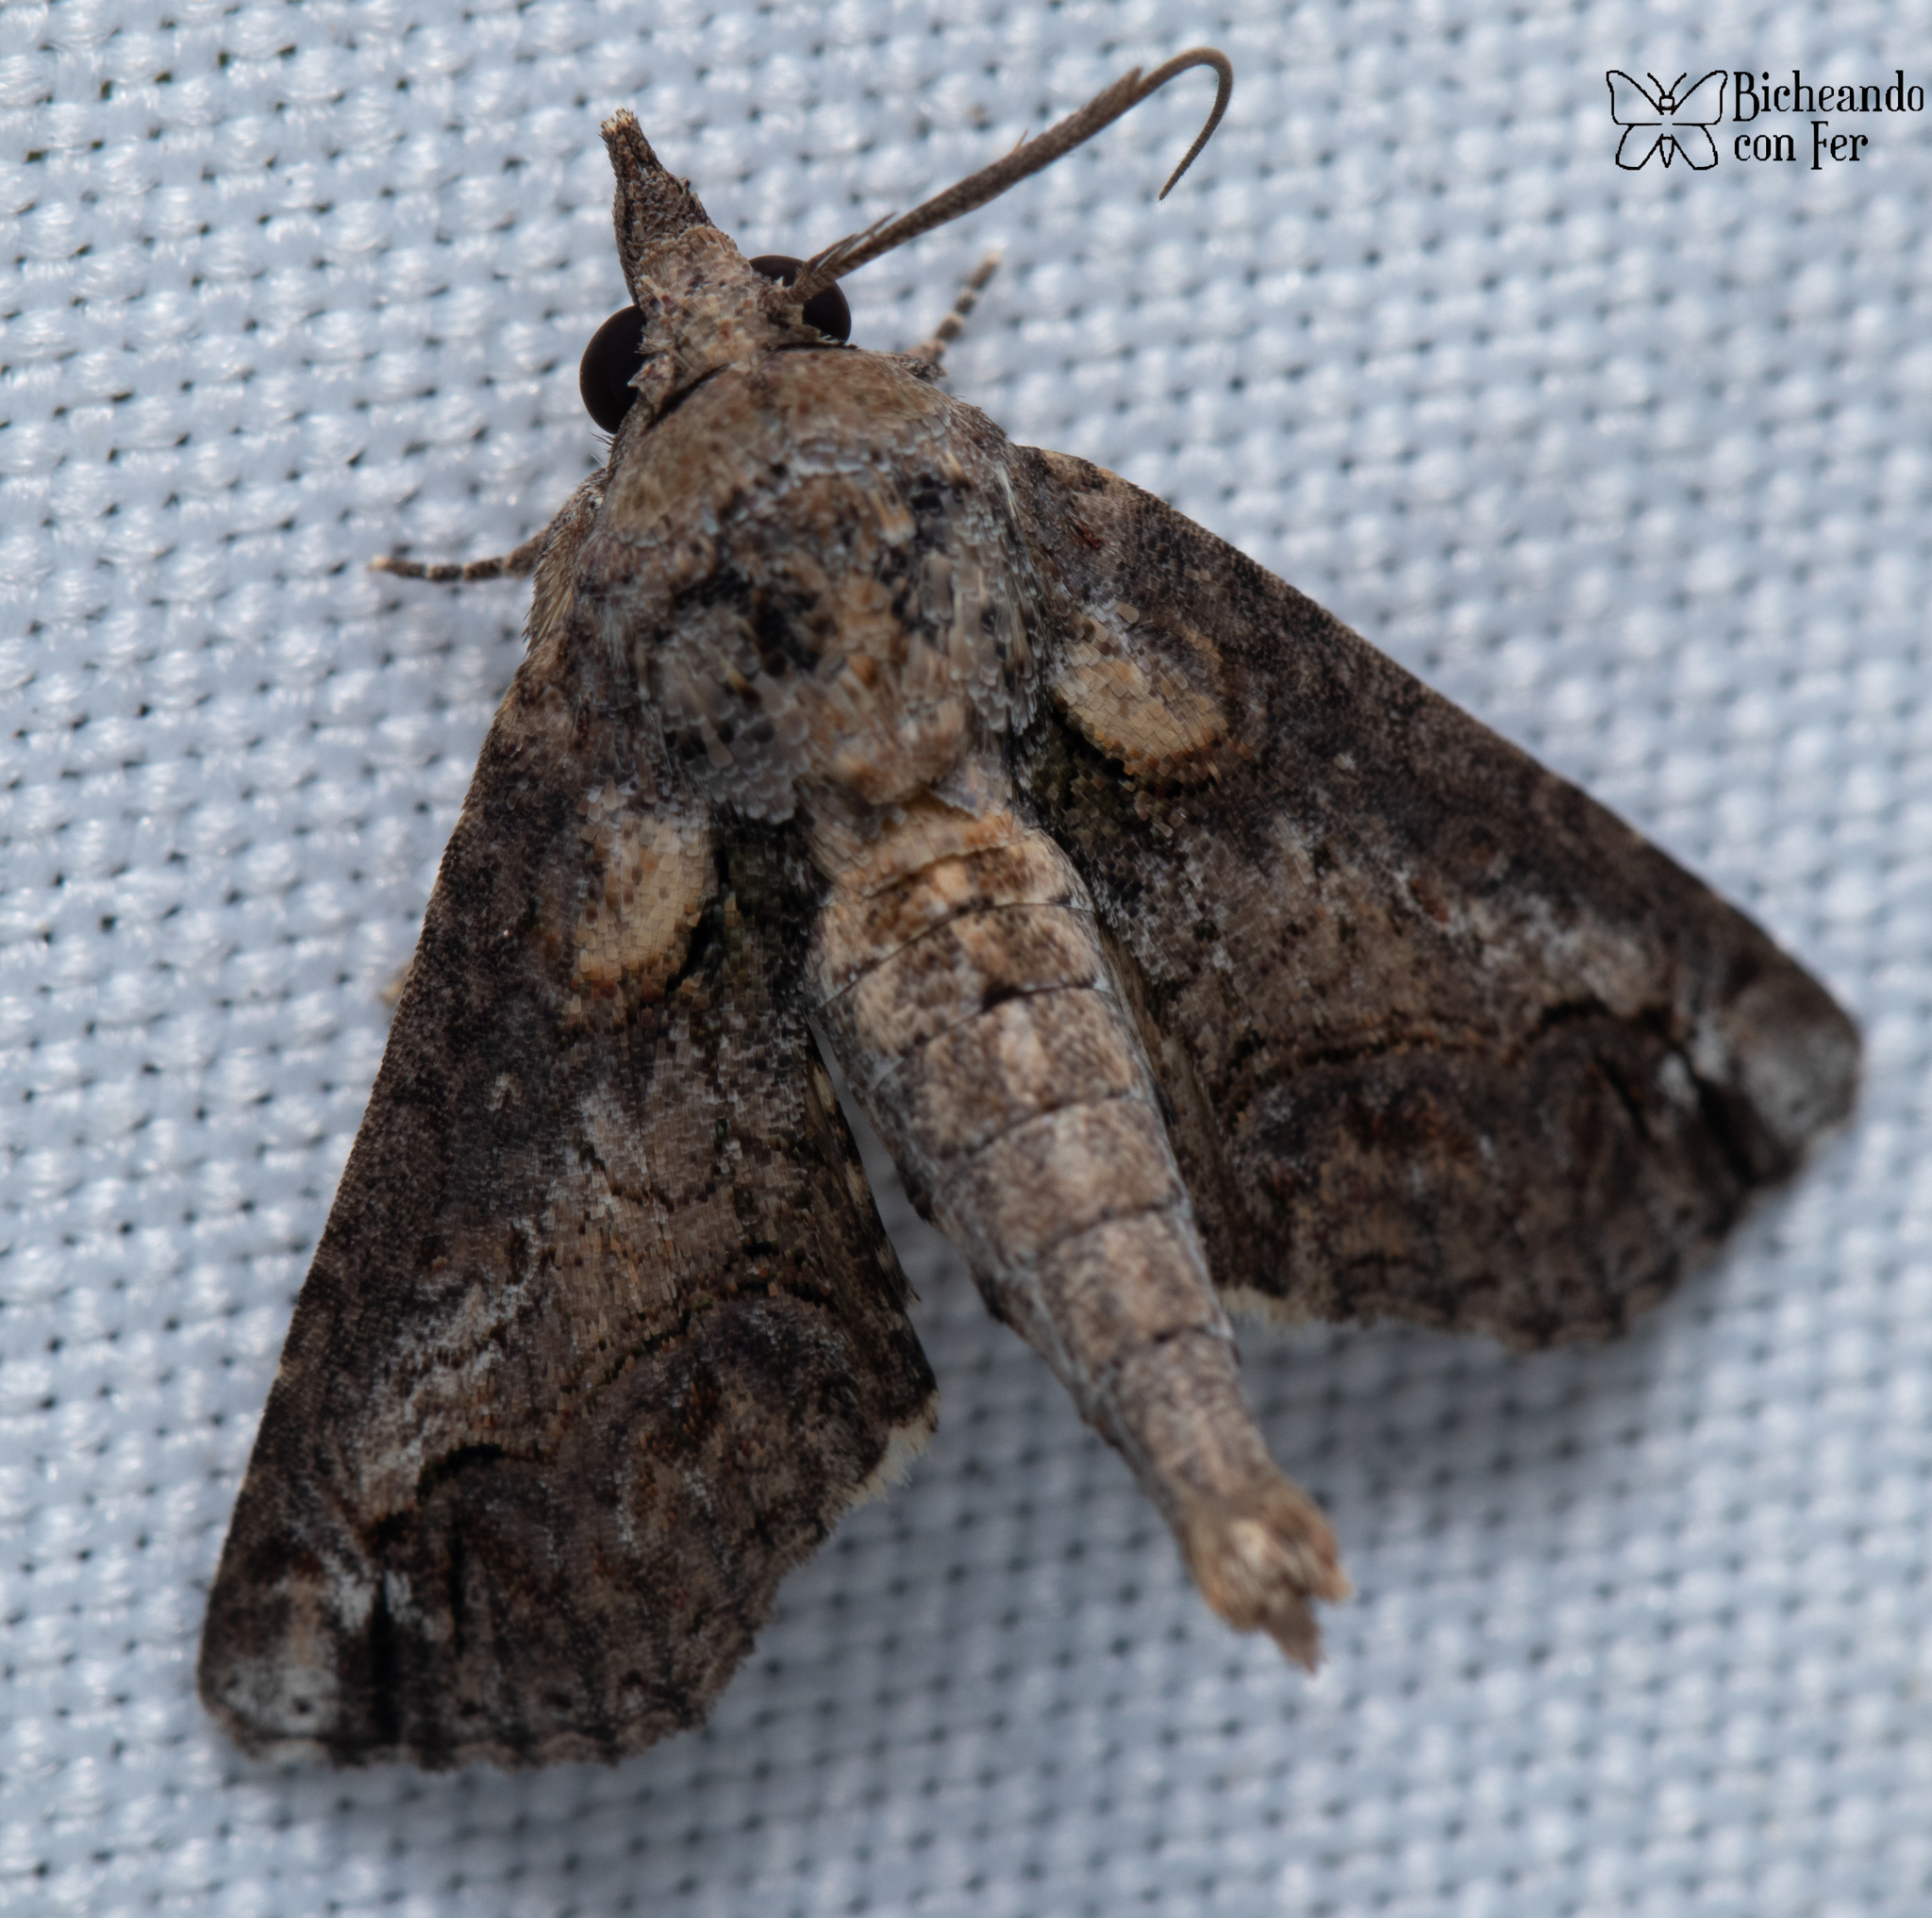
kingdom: Animalia
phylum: Arthropoda
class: Insecta
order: Lepidoptera
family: Euteliidae
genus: Paectes
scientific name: Paectes abrostoloides
